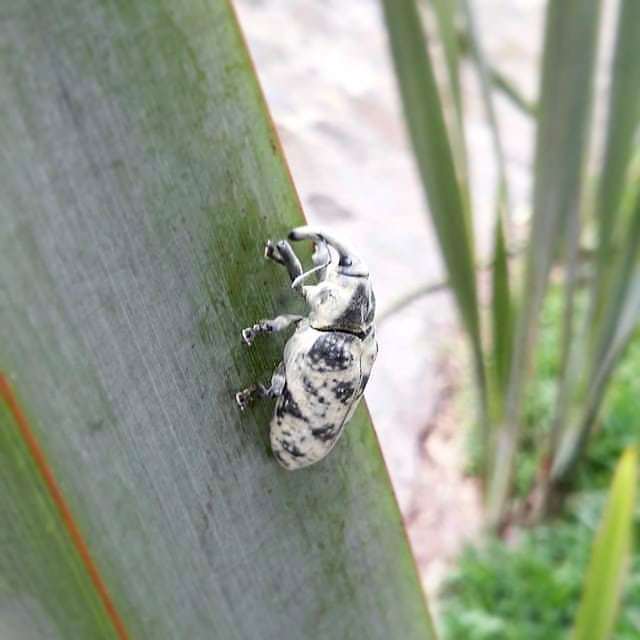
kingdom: Animalia
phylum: Arthropoda
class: Insecta
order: Coleoptera
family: Curculionidae
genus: Ileomus
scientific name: Ileomus distinguendus
